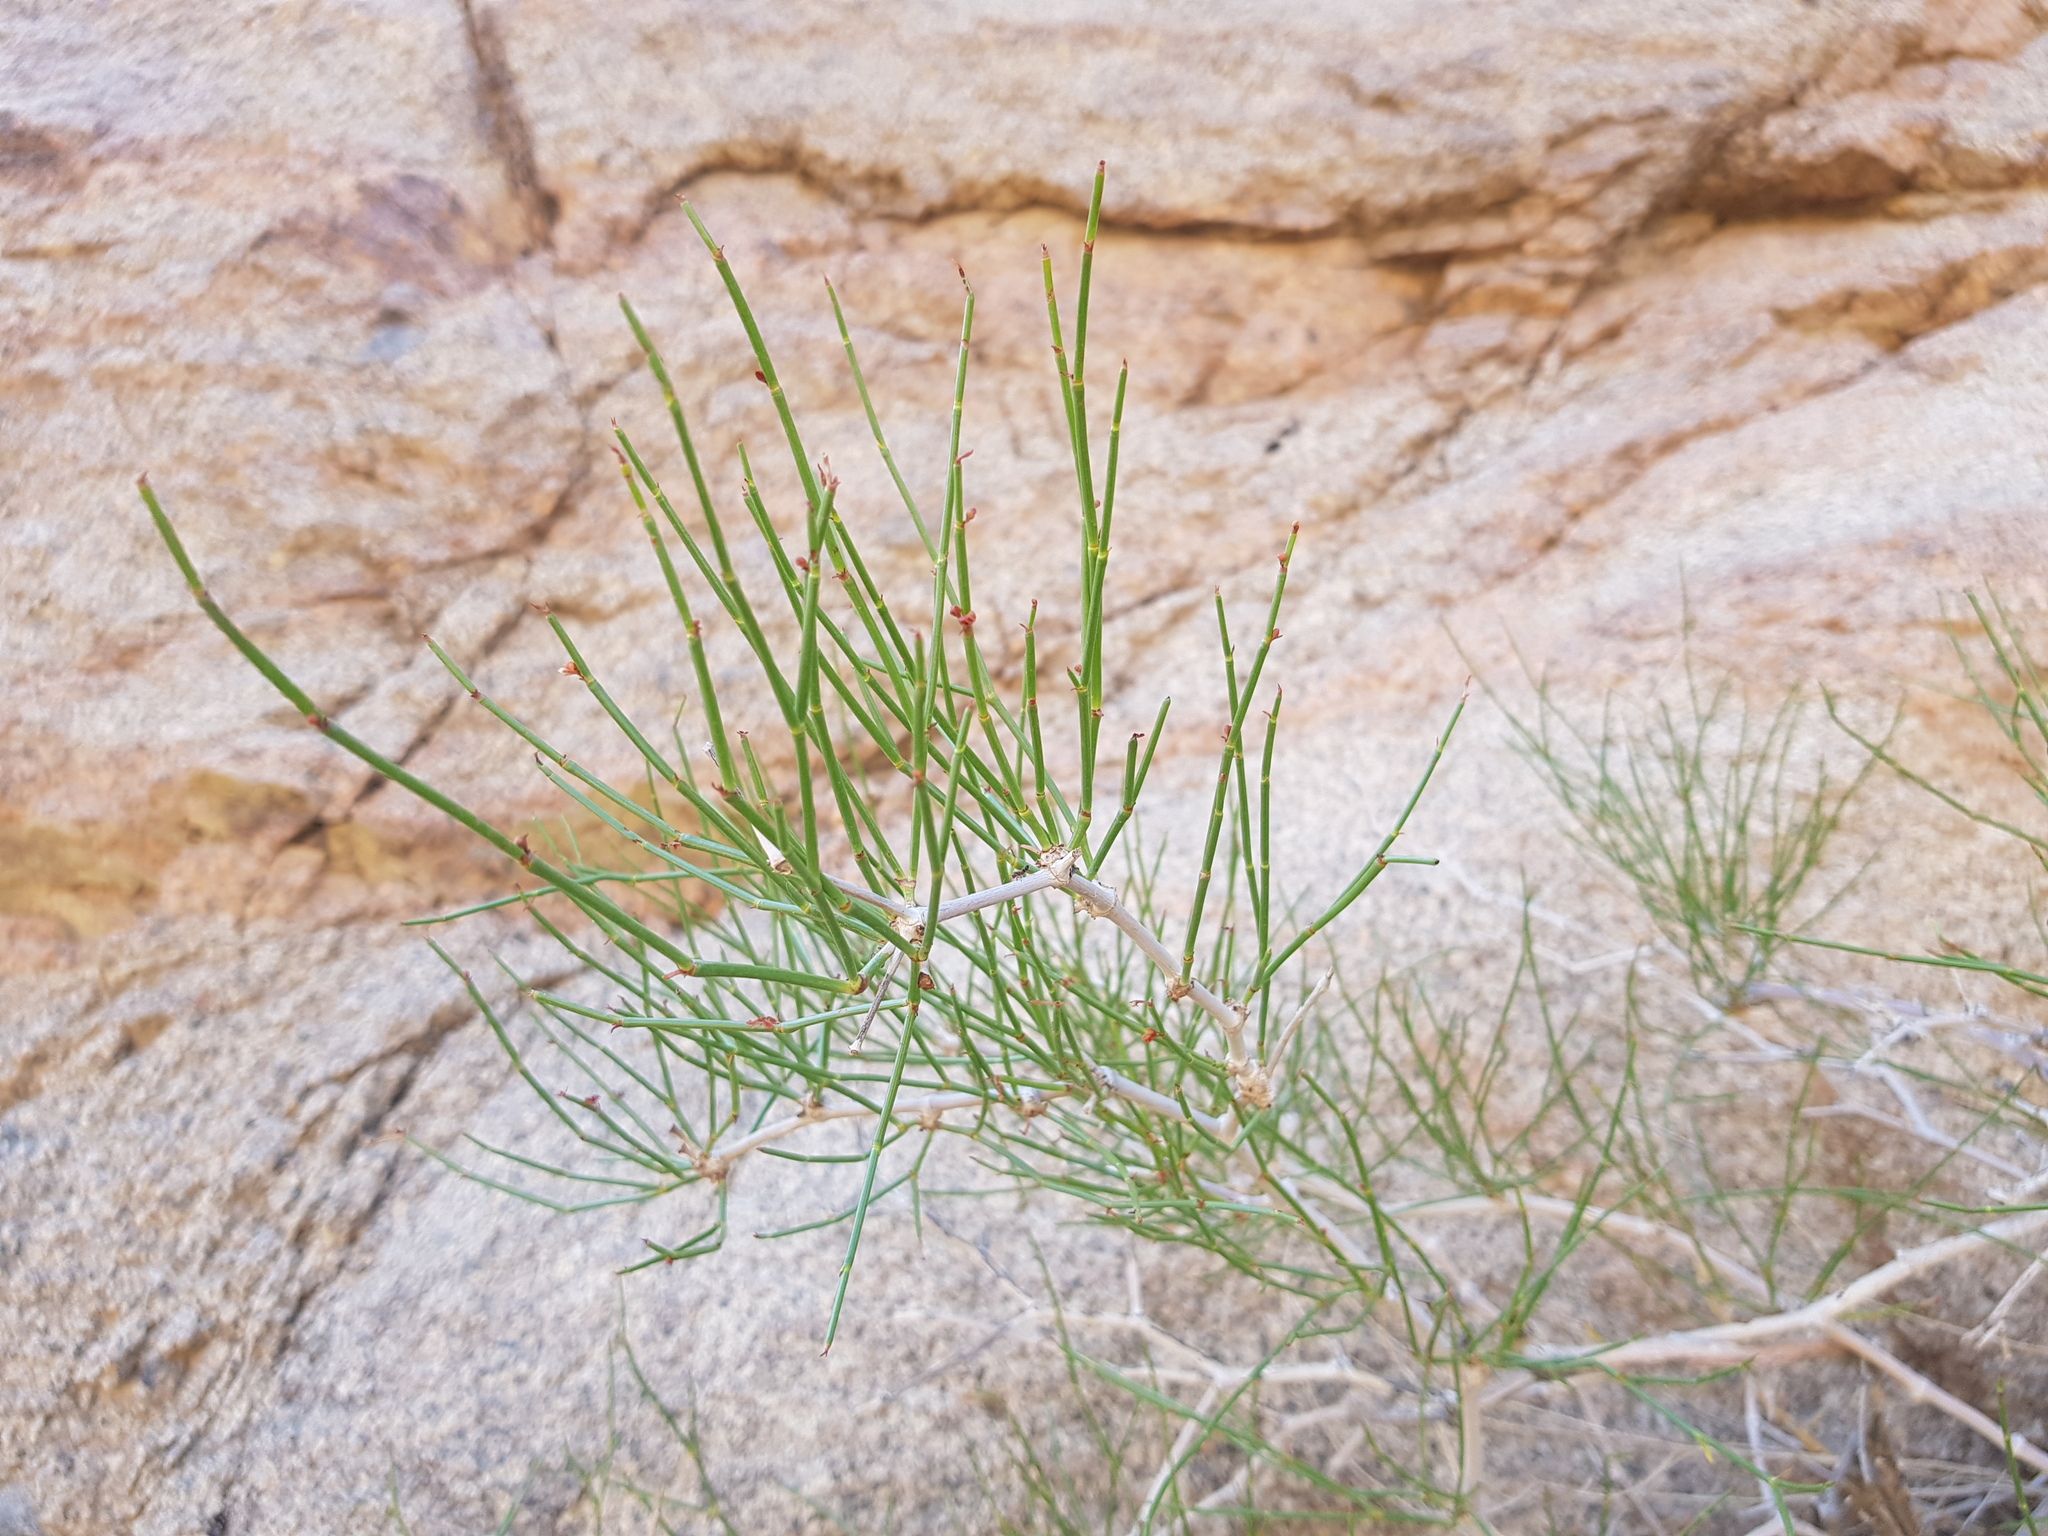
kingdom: Plantae
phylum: Tracheophyta
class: Magnoliopsida
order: Caryophyllales
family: Polygonaceae
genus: Calligonum
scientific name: Calligonum mongolicum
